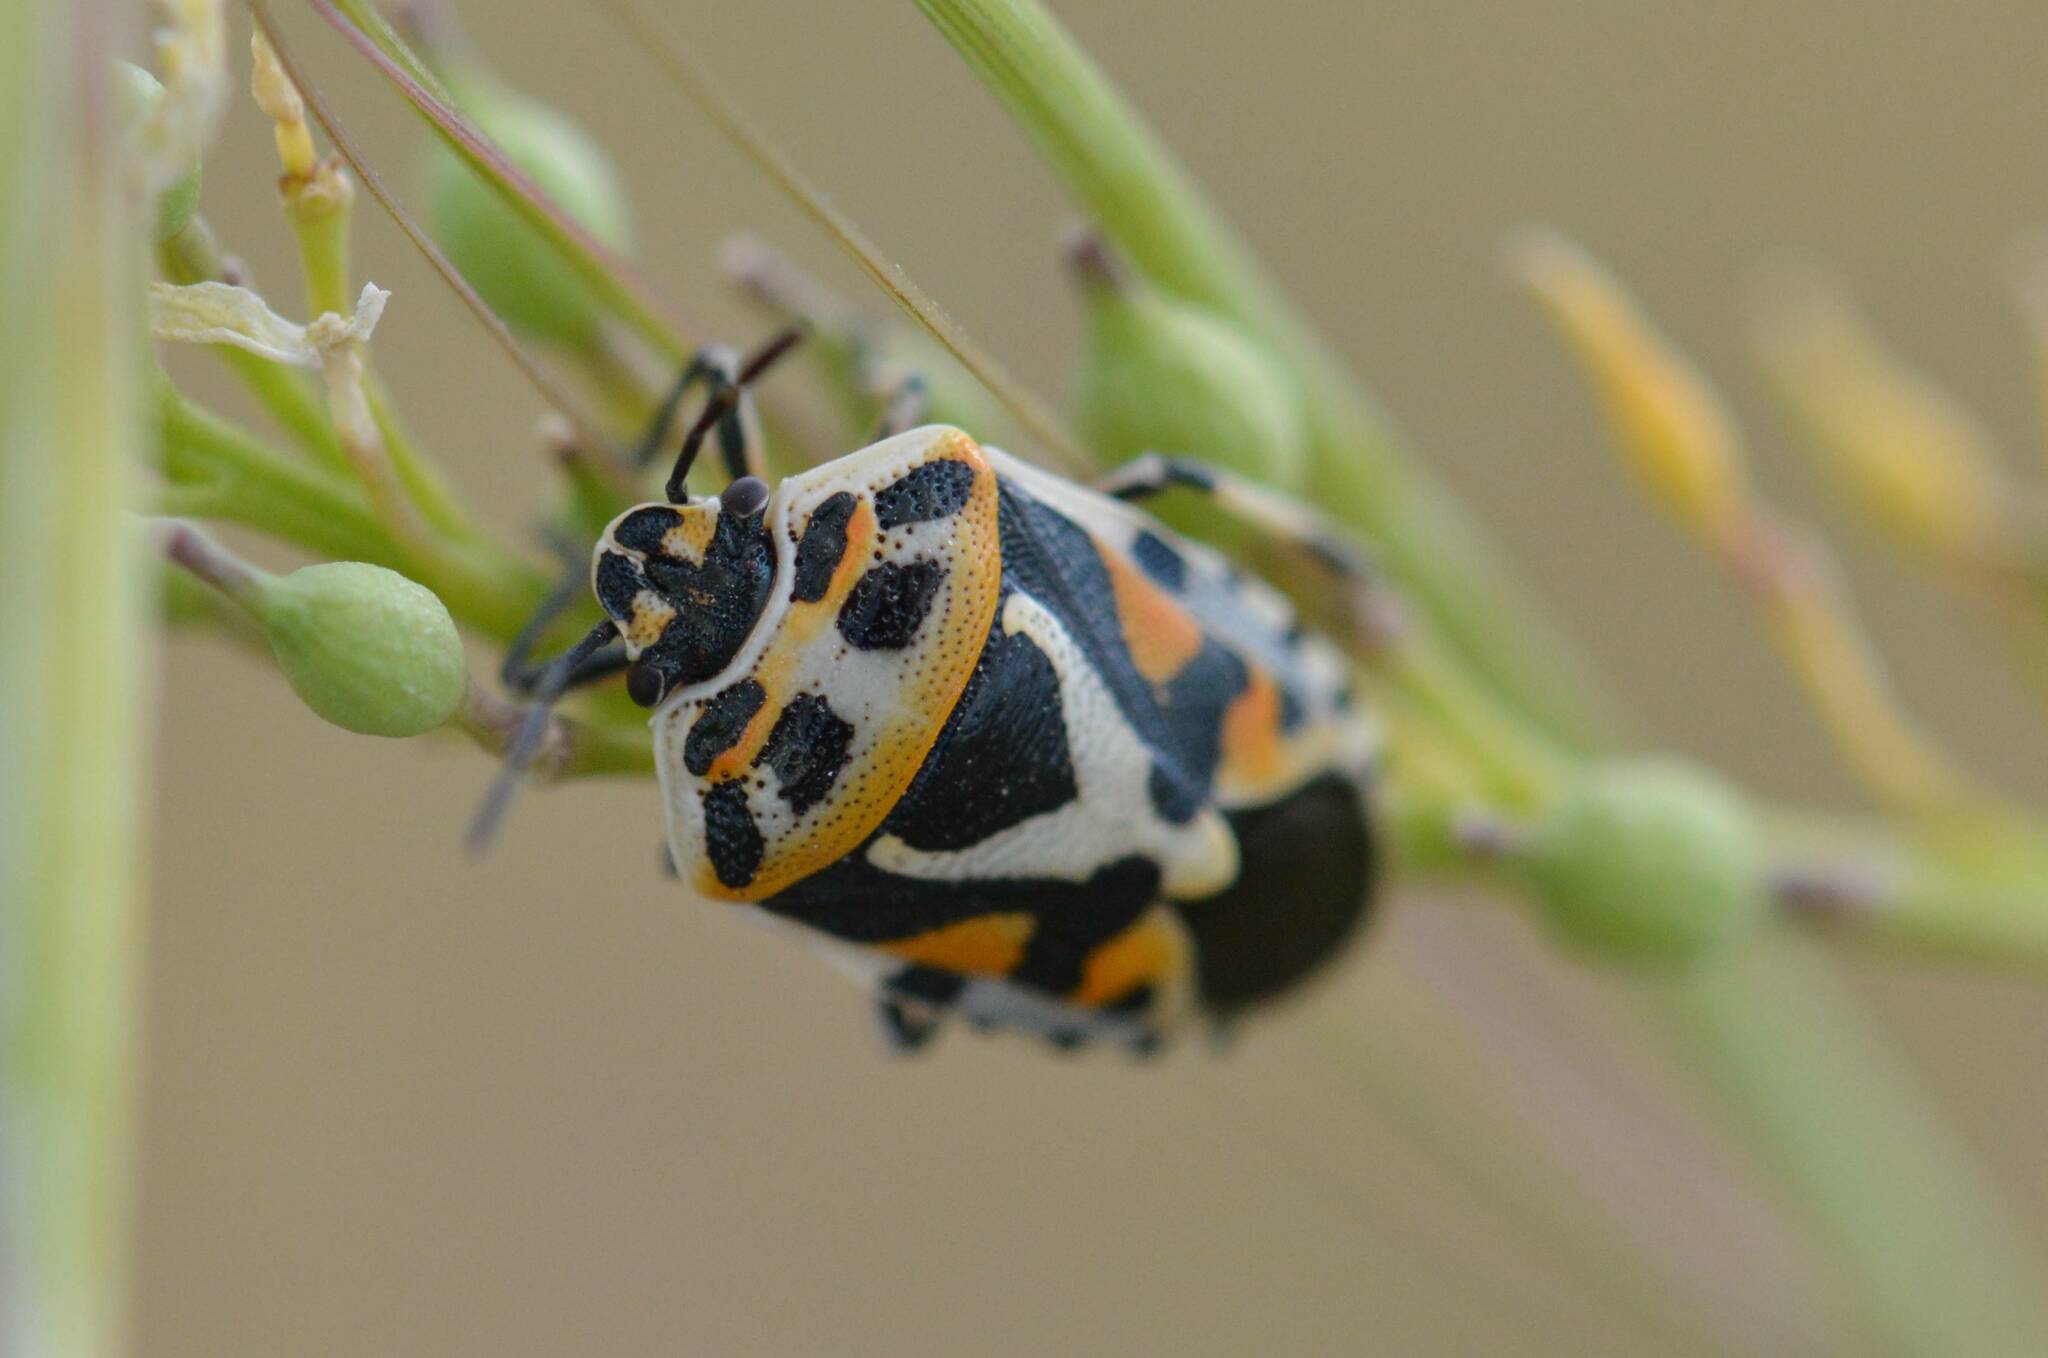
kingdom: Animalia
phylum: Arthropoda
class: Insecta
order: Hemiptera
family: Pentatomidae
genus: Eurydema
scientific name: Eurydema ornata
